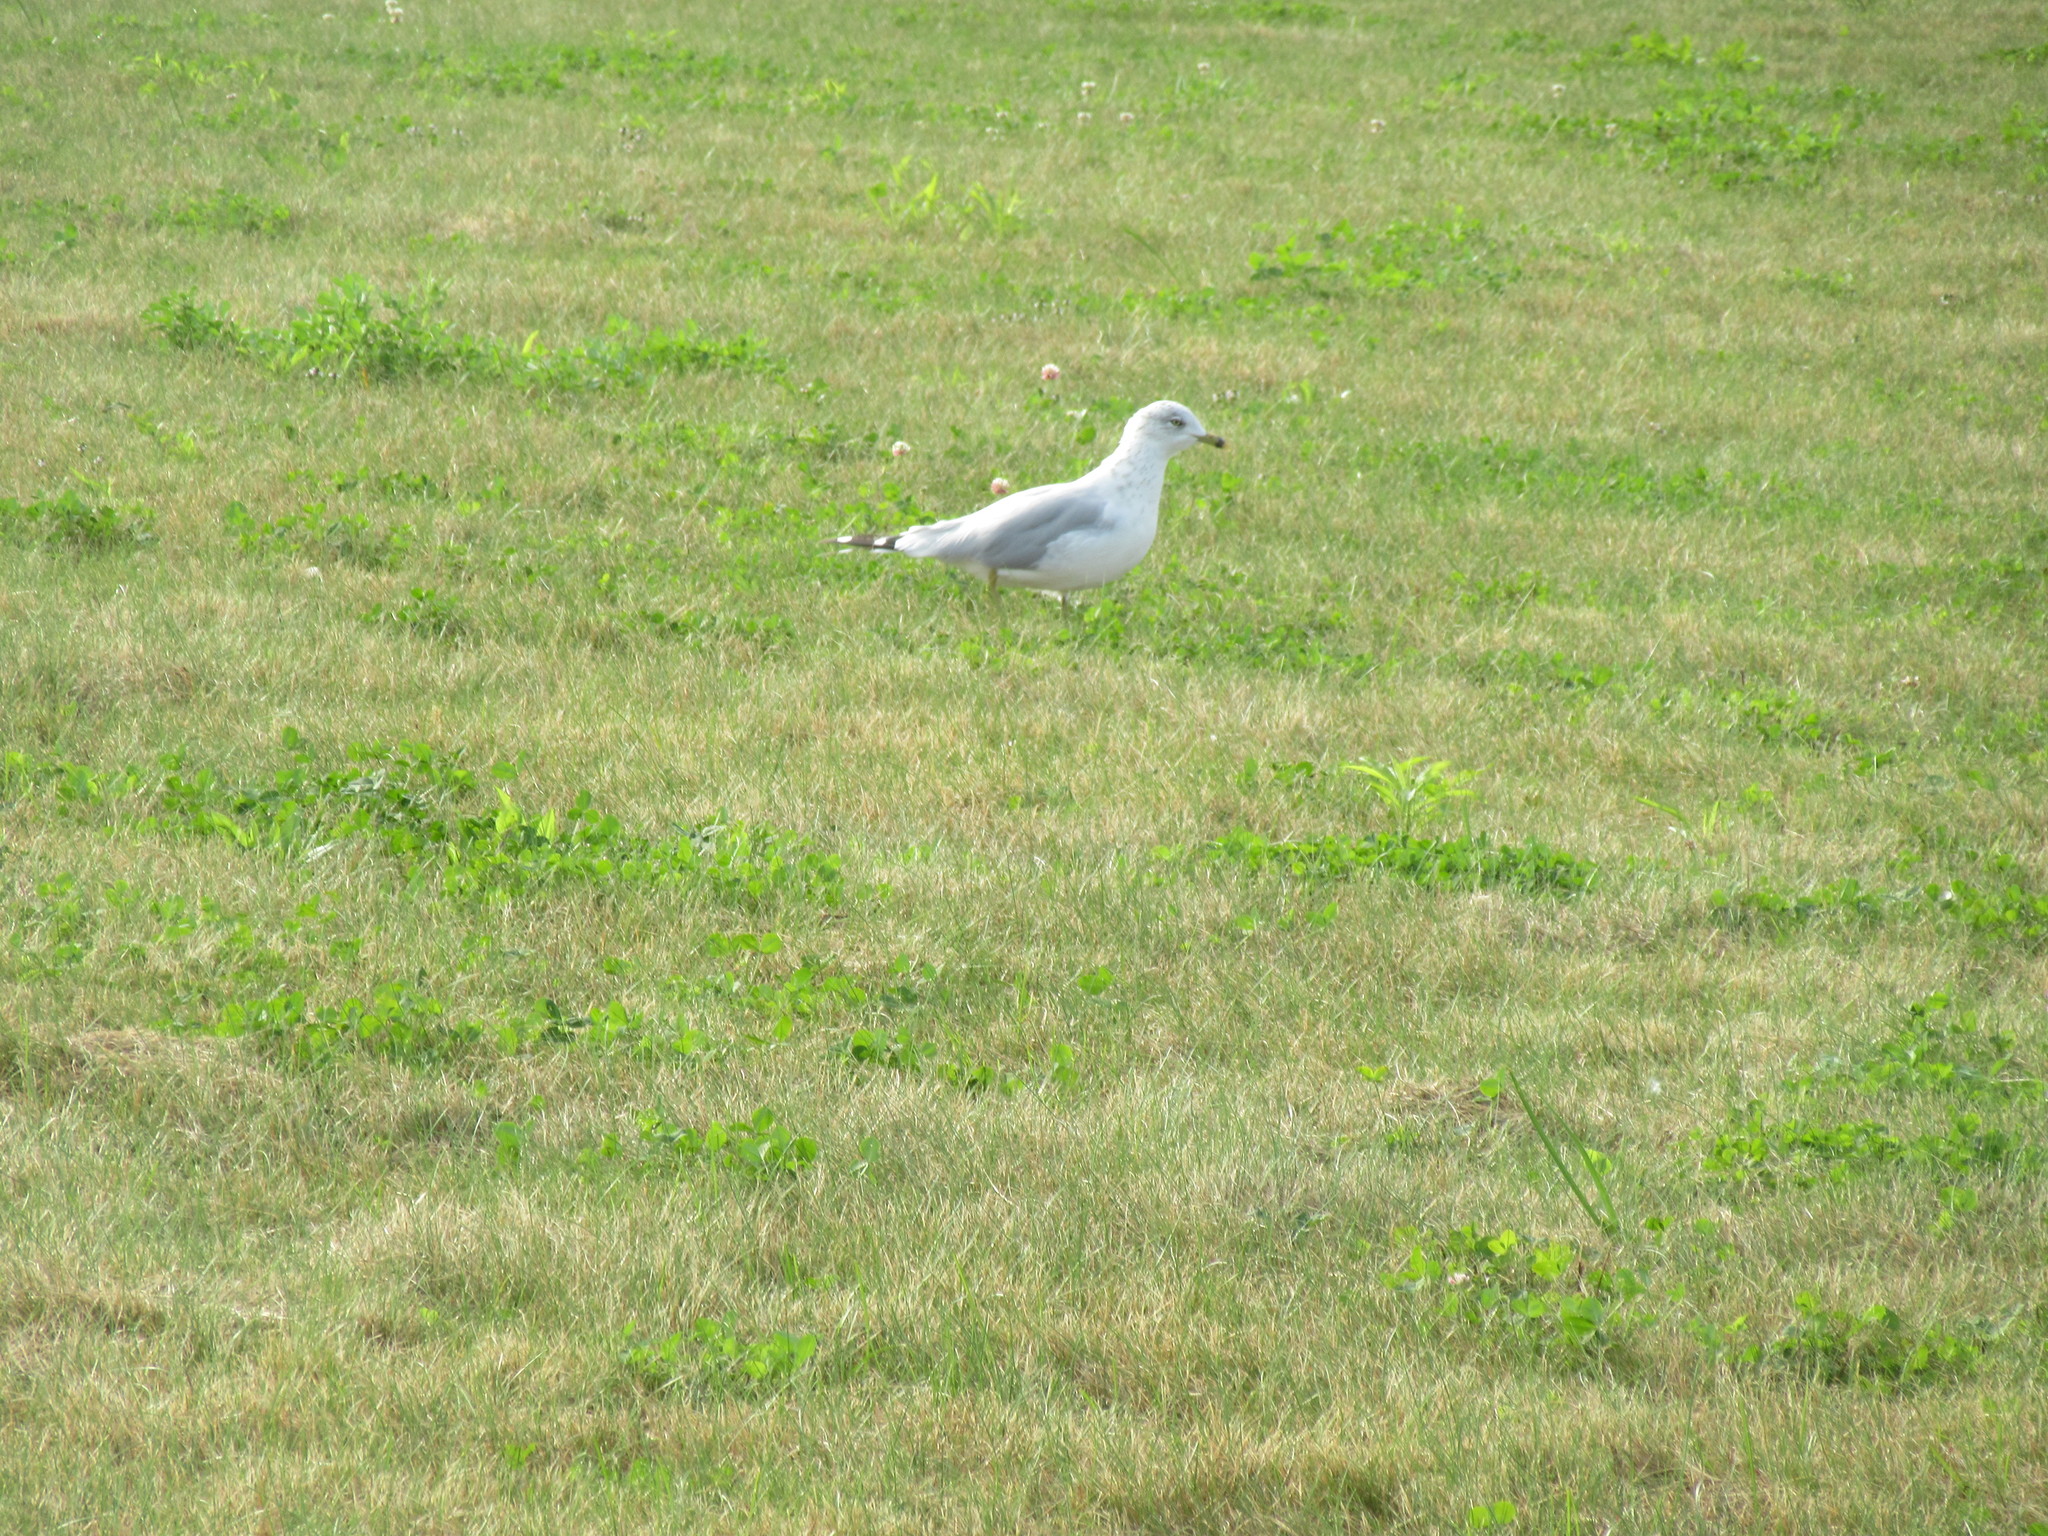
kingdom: Animalia
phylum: Chordata
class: Aves
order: Charadriiformes
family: Laridae
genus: Larus
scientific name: Larus delawarensis
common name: Ring-billed gull
